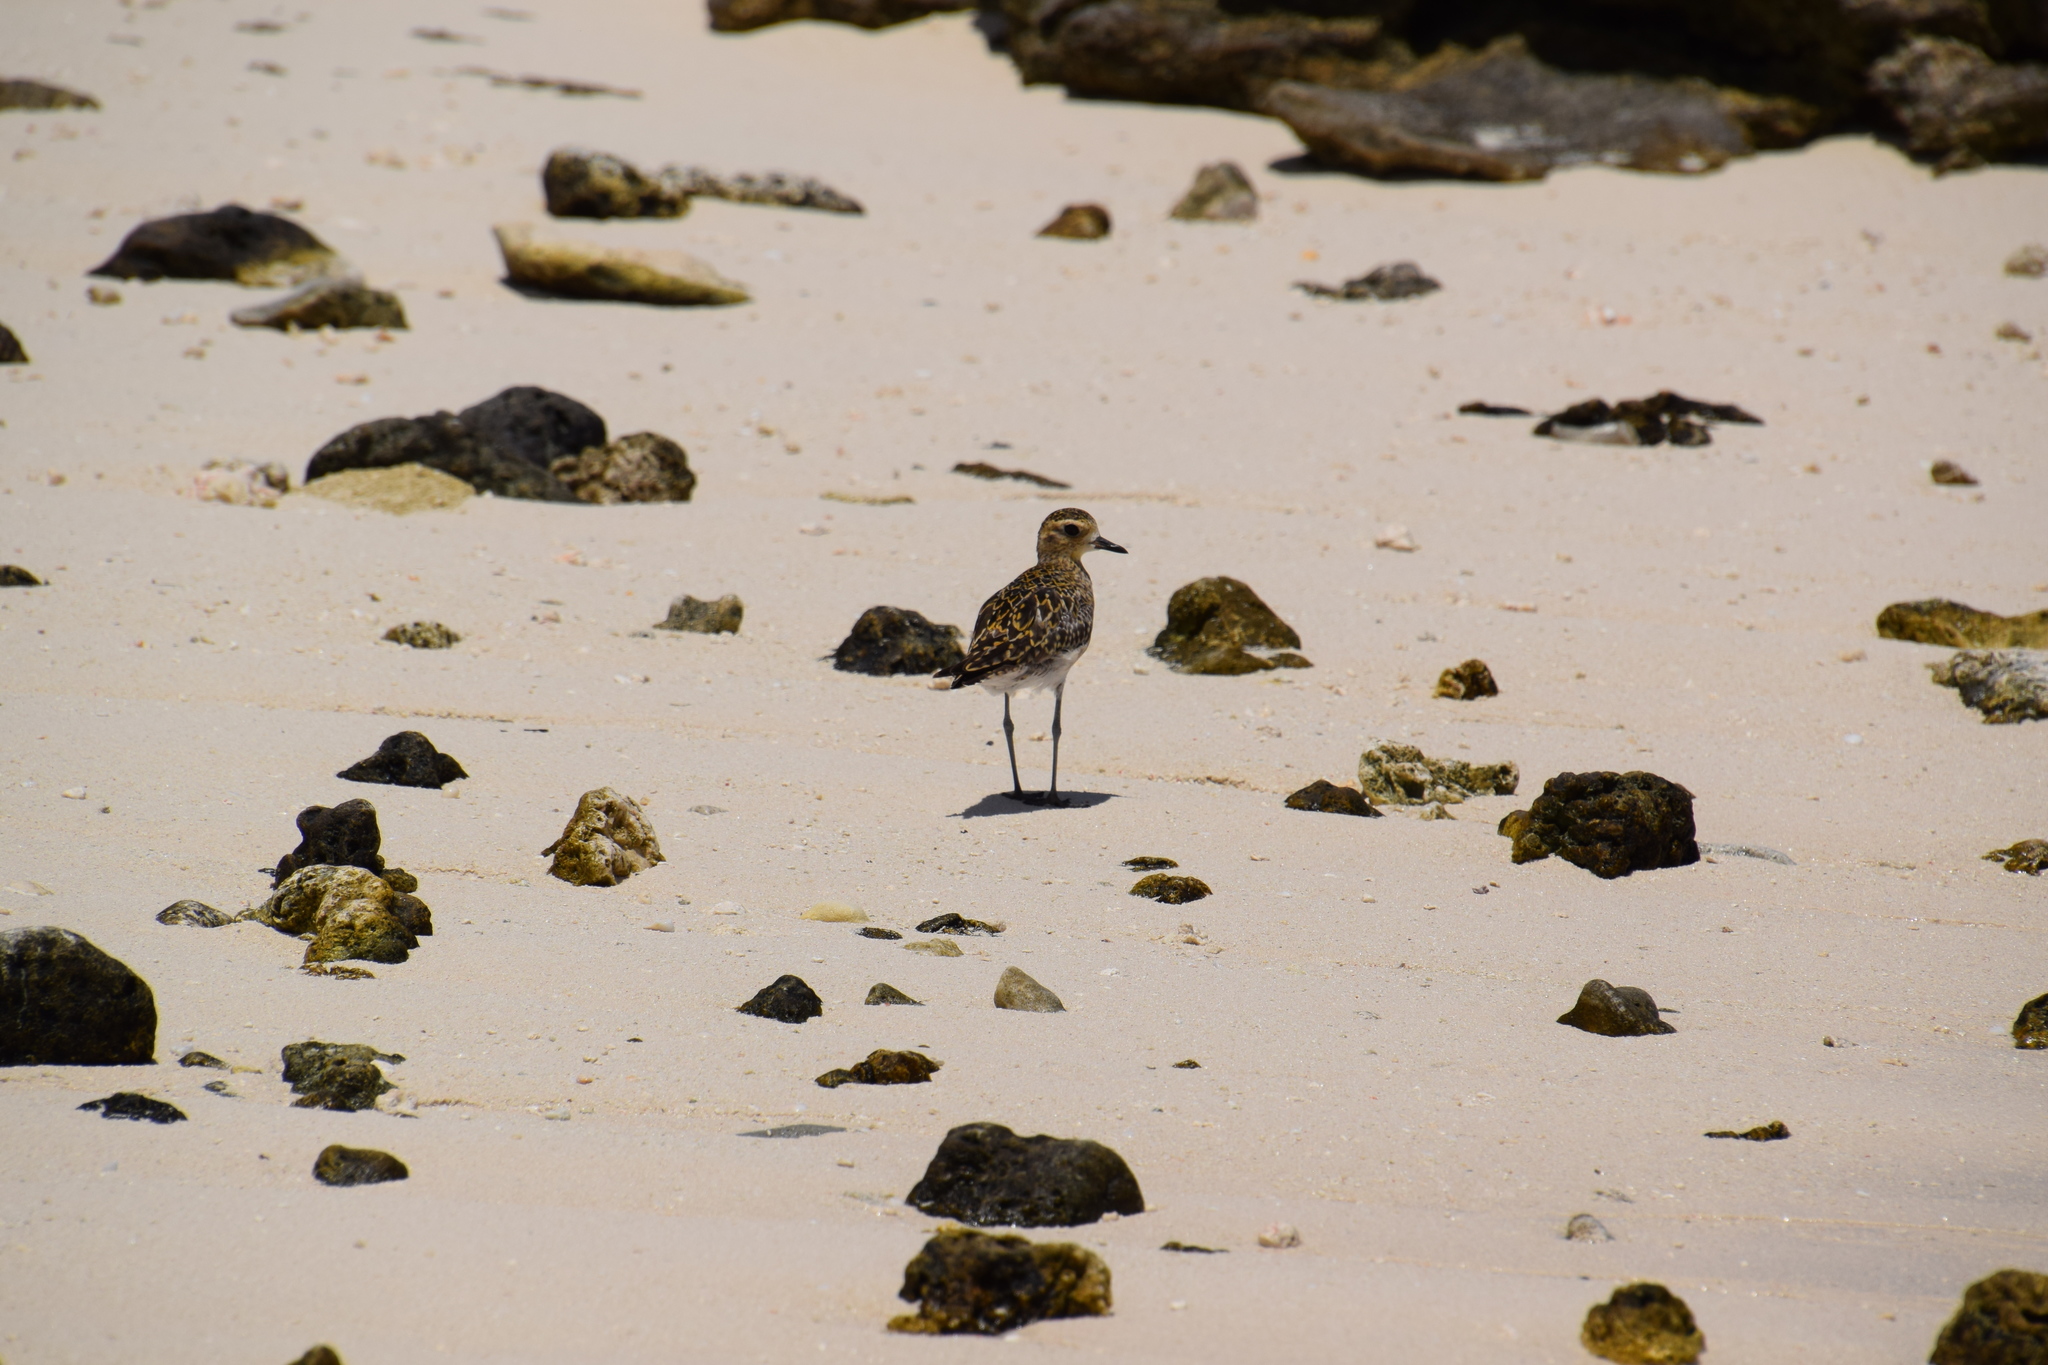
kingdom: Animalia
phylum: Chordata
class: Aves
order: Charadriiformes
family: Charadriidae
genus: Pluvialis
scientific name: Pluvialis fulva
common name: Pacific golden plover
